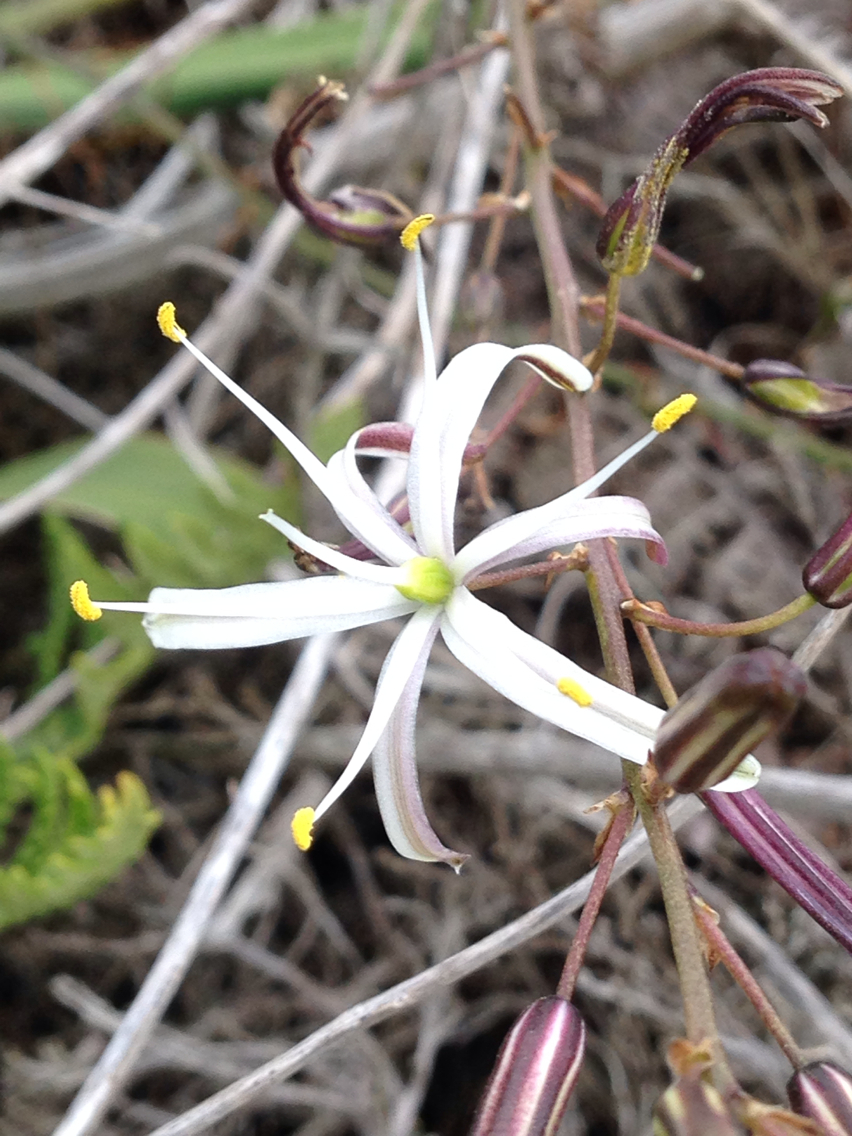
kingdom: Plantae
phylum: Tracheophyta
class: Liliopsida
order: Asparagales
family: Asparagaceae
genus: Chlorogalum
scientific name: Chlorogalum pomeridianum
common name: Amole
